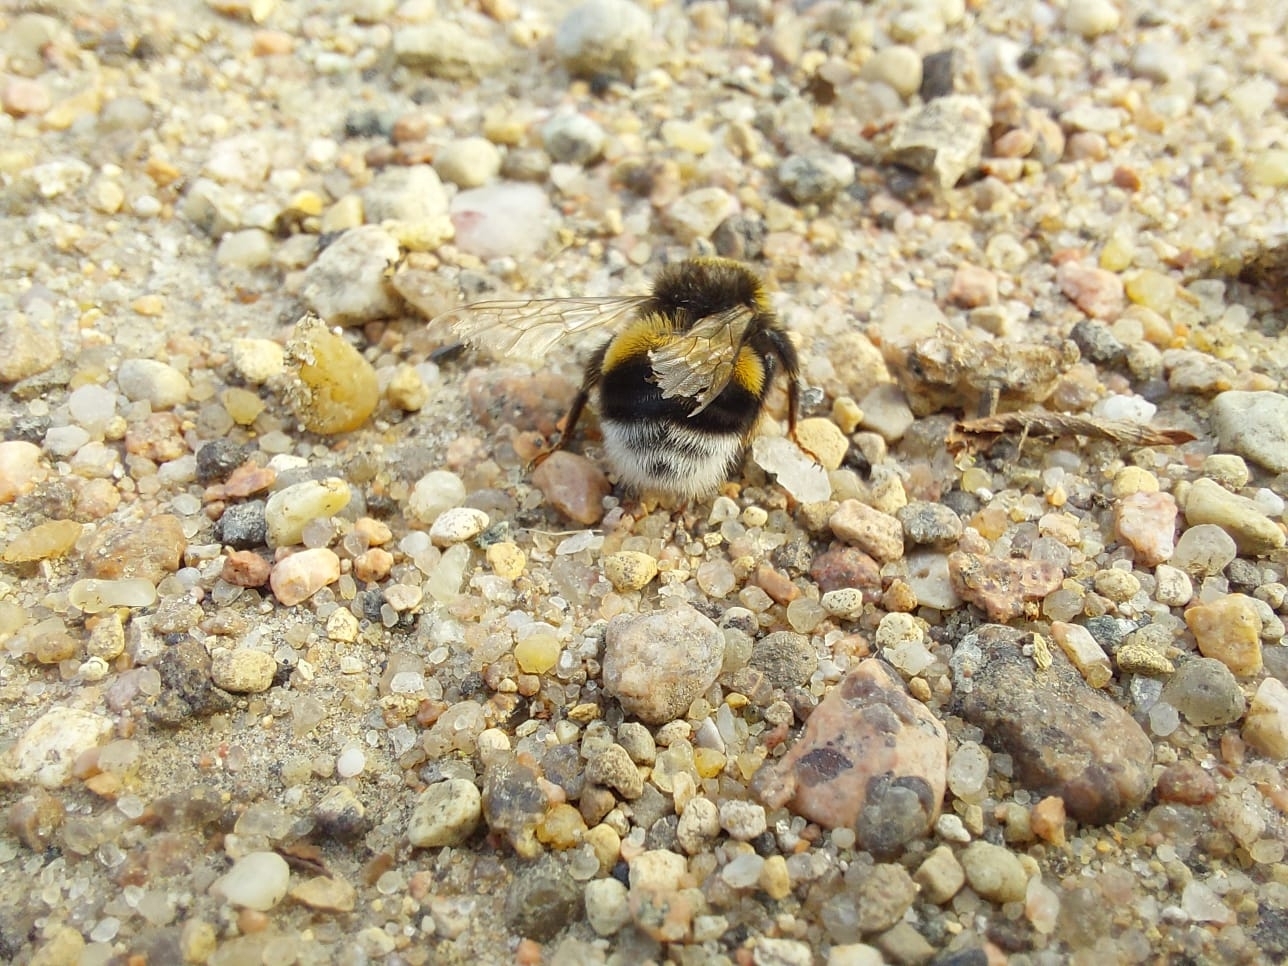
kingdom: Animalia
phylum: Arthropoda
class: Insecta
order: Hymenoptera
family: Apidae
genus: Bombus
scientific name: Bombus lucorum
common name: White-tailed bumblebee
